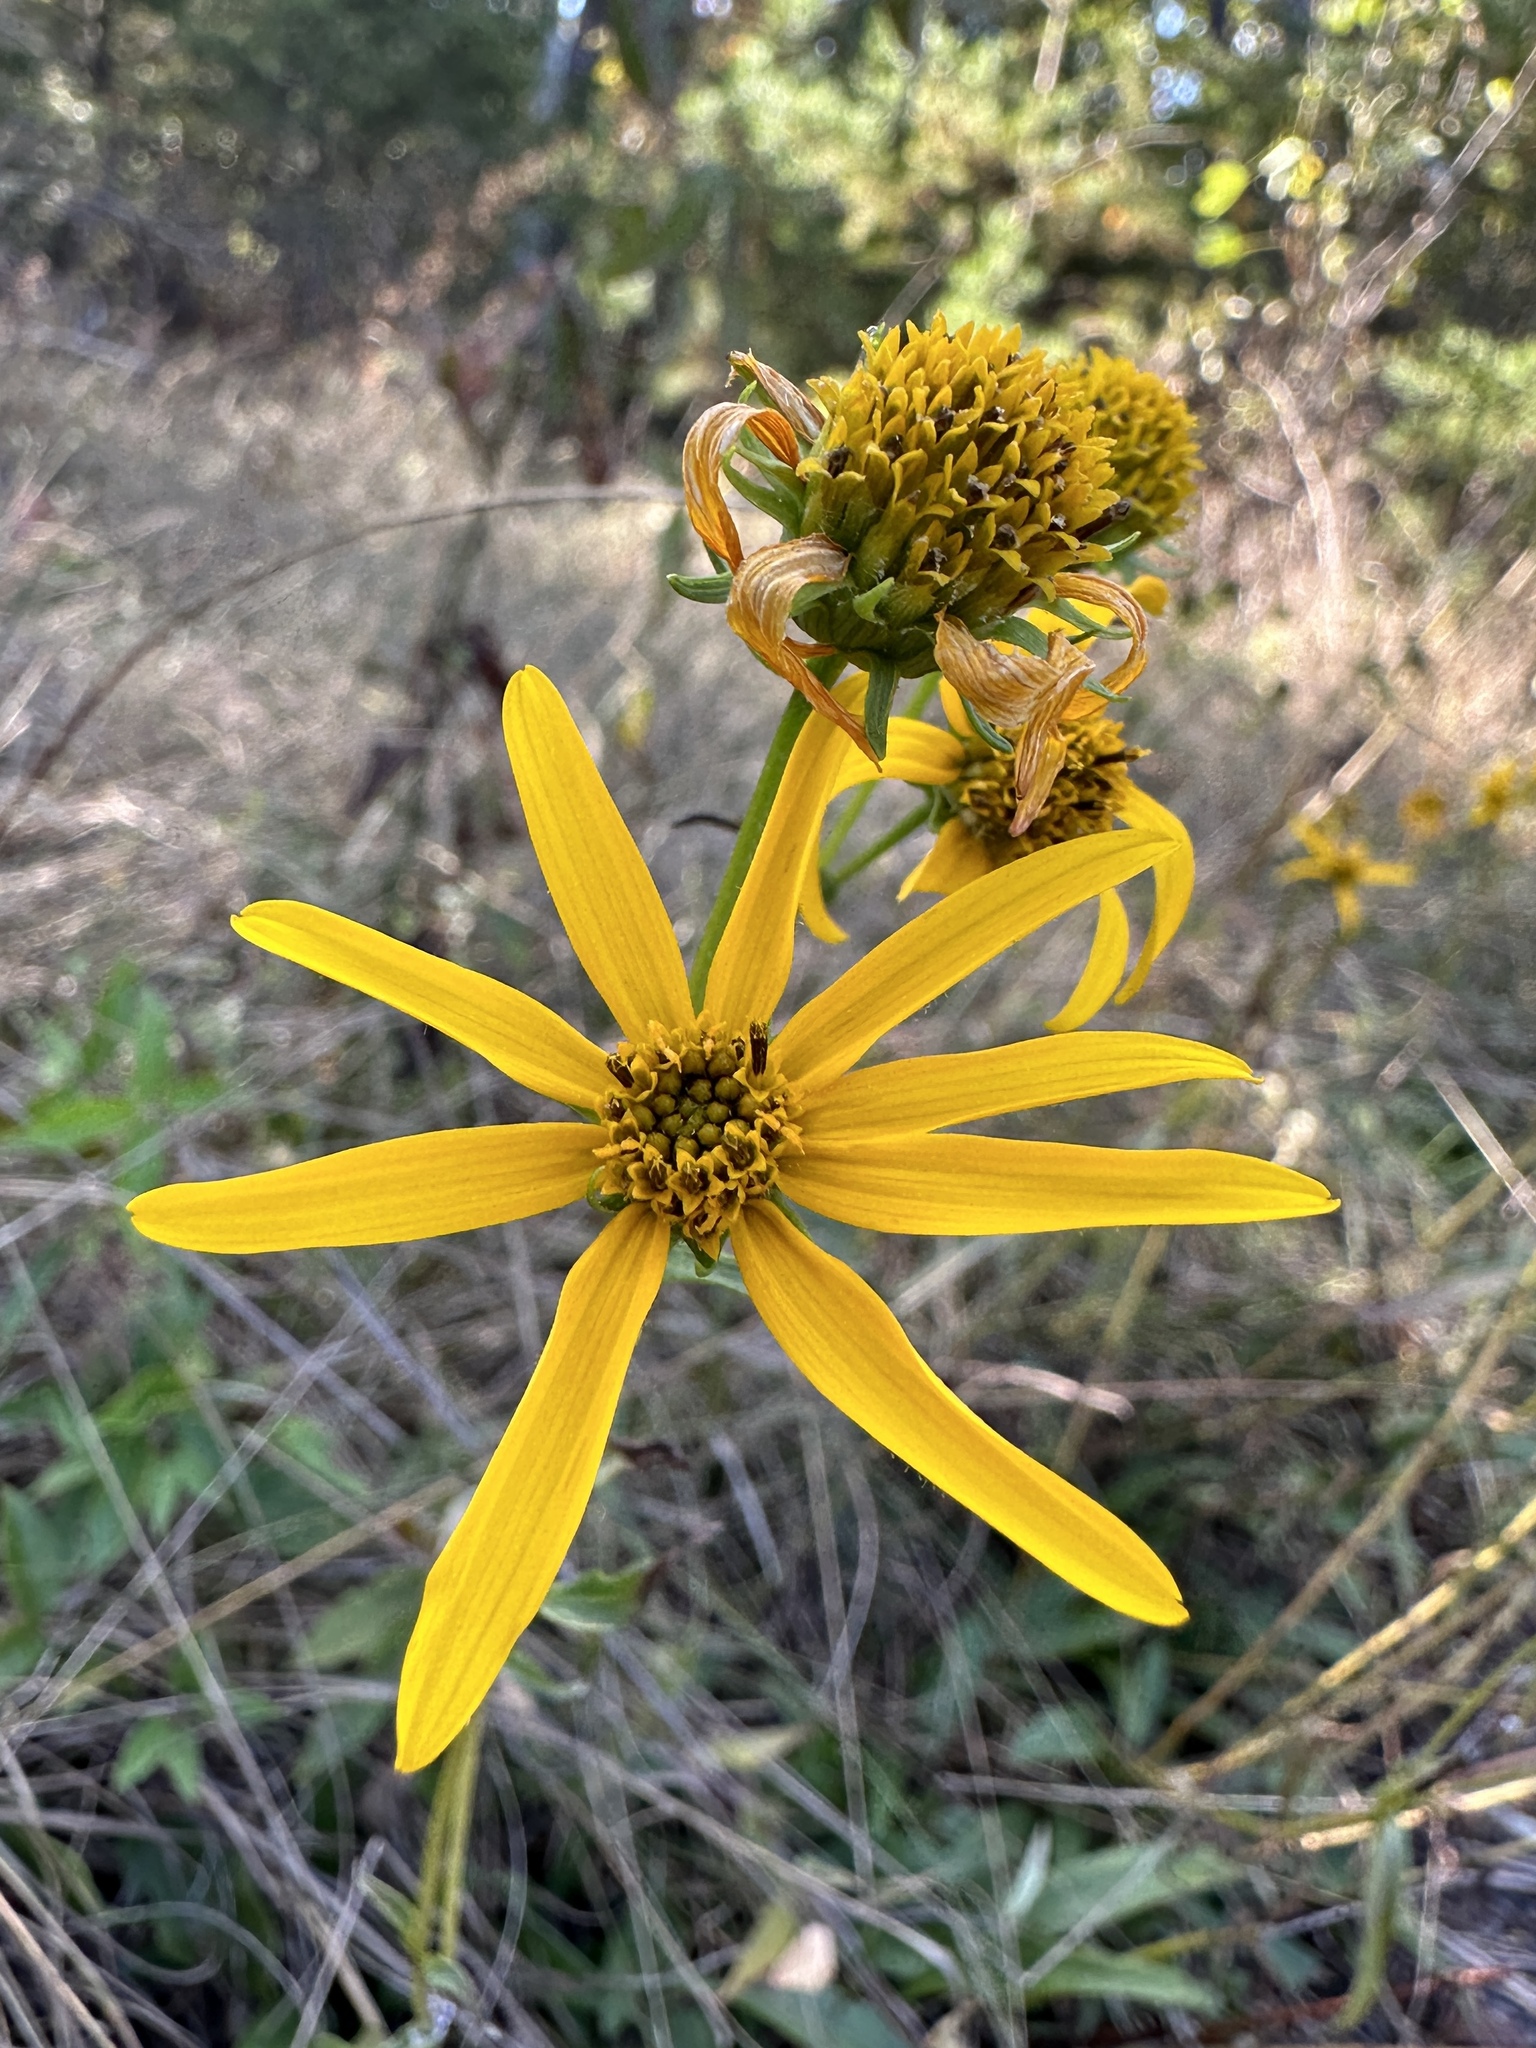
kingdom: Plantae
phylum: Tracheophyta
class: Magnoliopsida
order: Asterales
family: Asteraceae
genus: Helianthus
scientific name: Helianthus longifolius
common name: Longleaf sunflower
